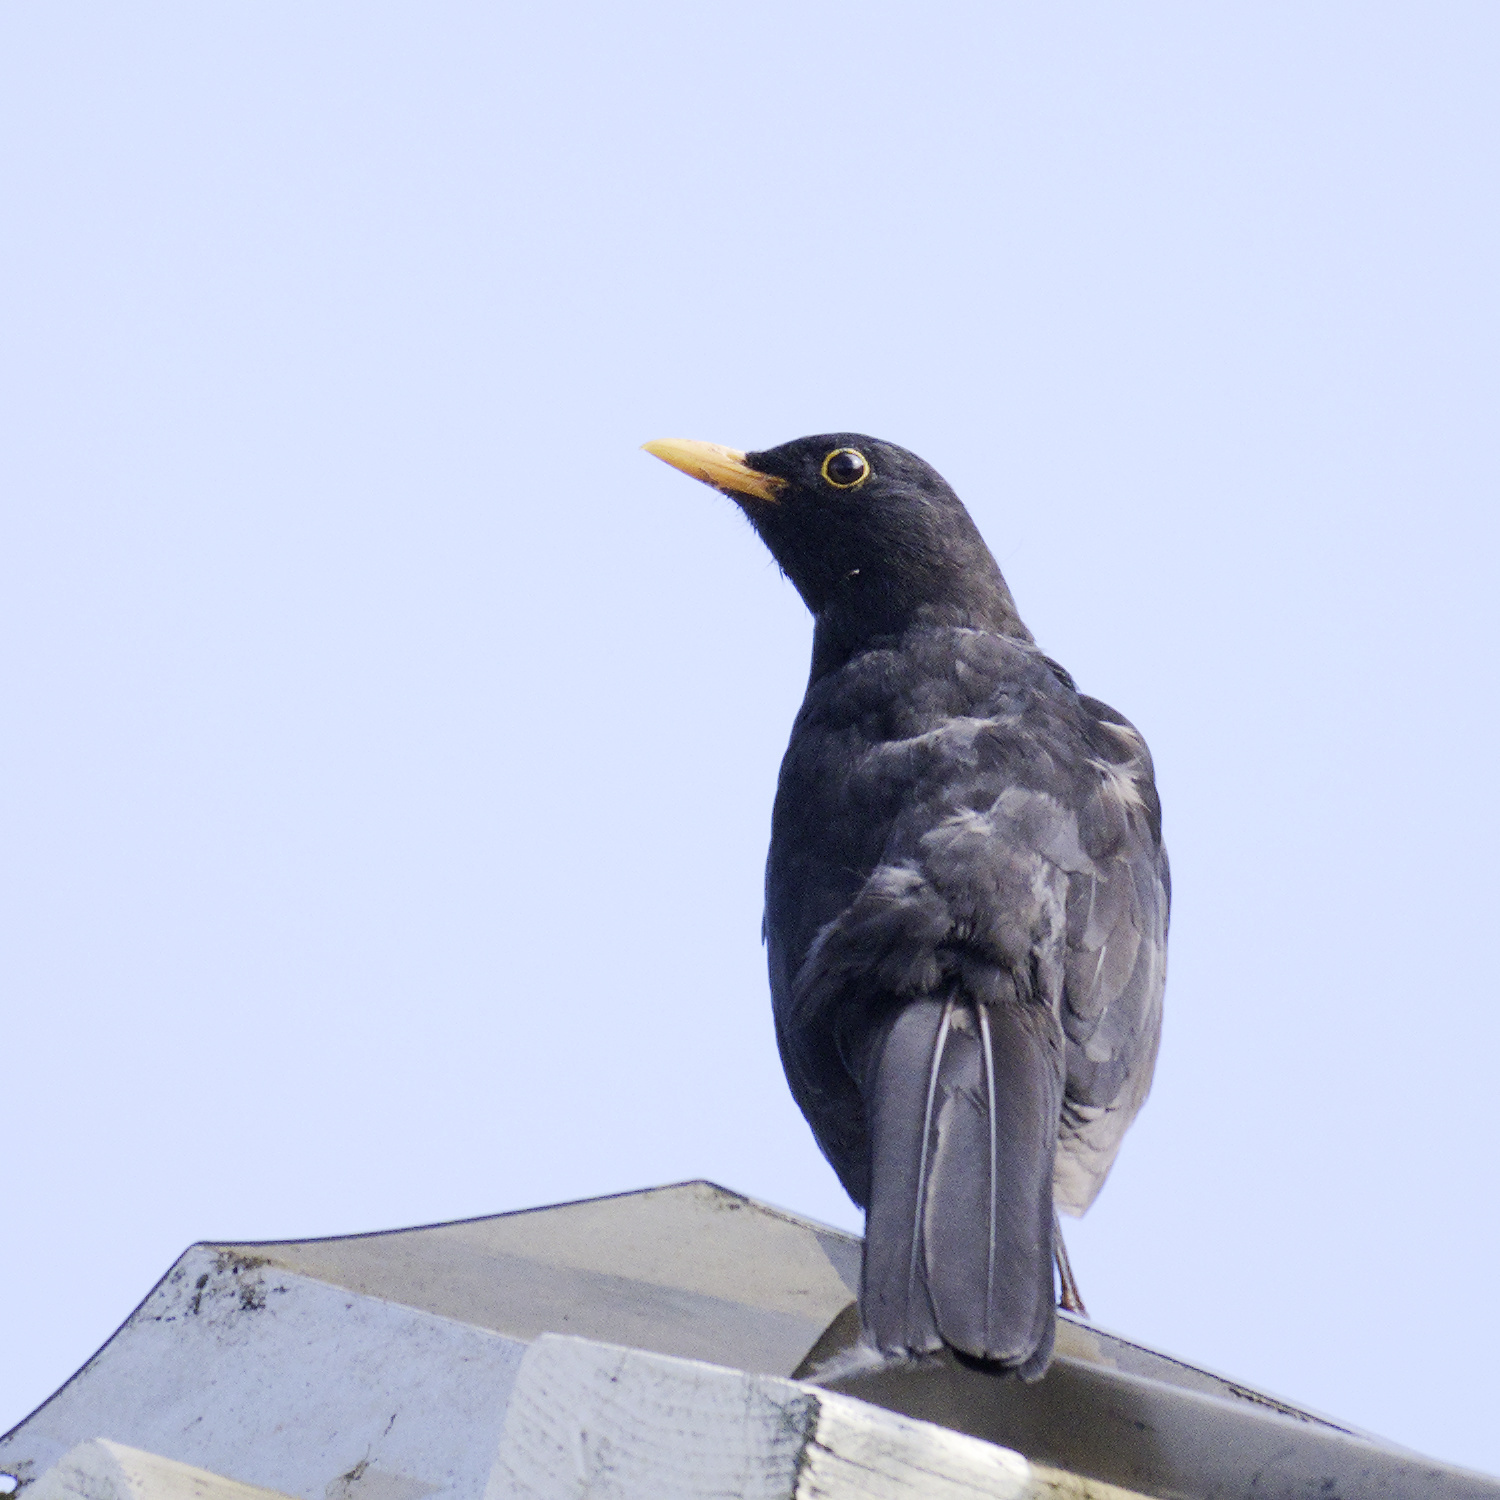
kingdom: Animalia
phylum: Chordata
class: Aves
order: Passeriformes
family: Turdidae
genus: Turdus
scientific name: Turdus merula
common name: Common blackbird
